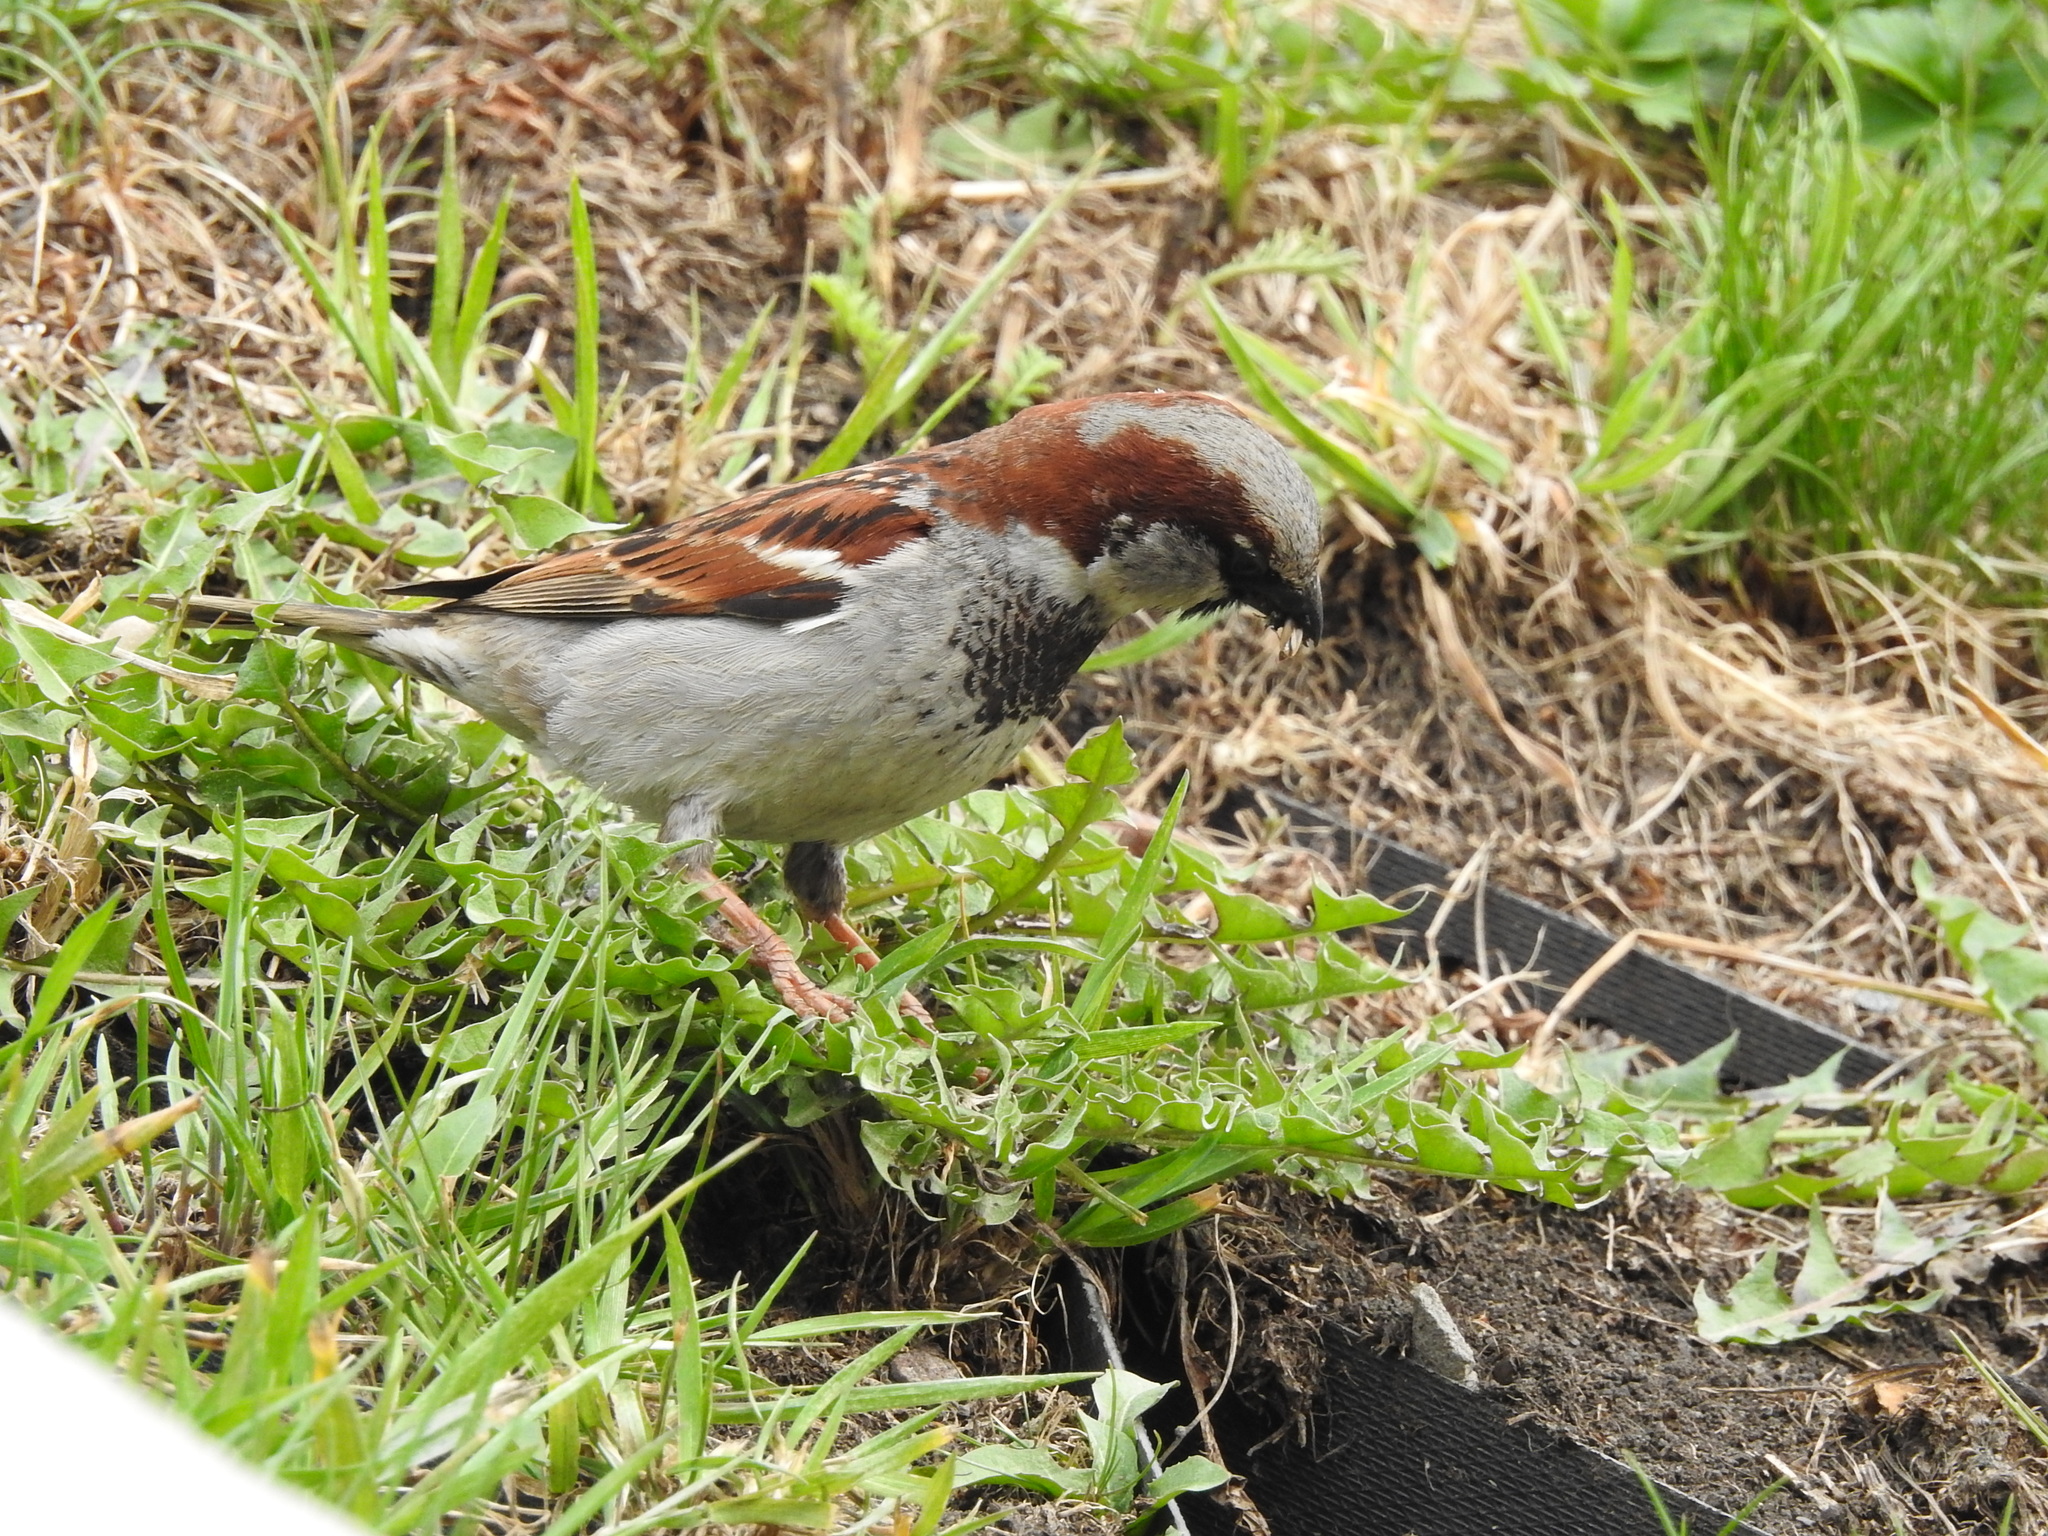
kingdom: Animalia
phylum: Chordata
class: Aves
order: Passeriformes
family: Passeridae
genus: Passer
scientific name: Passer domesticus
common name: House sparrow
